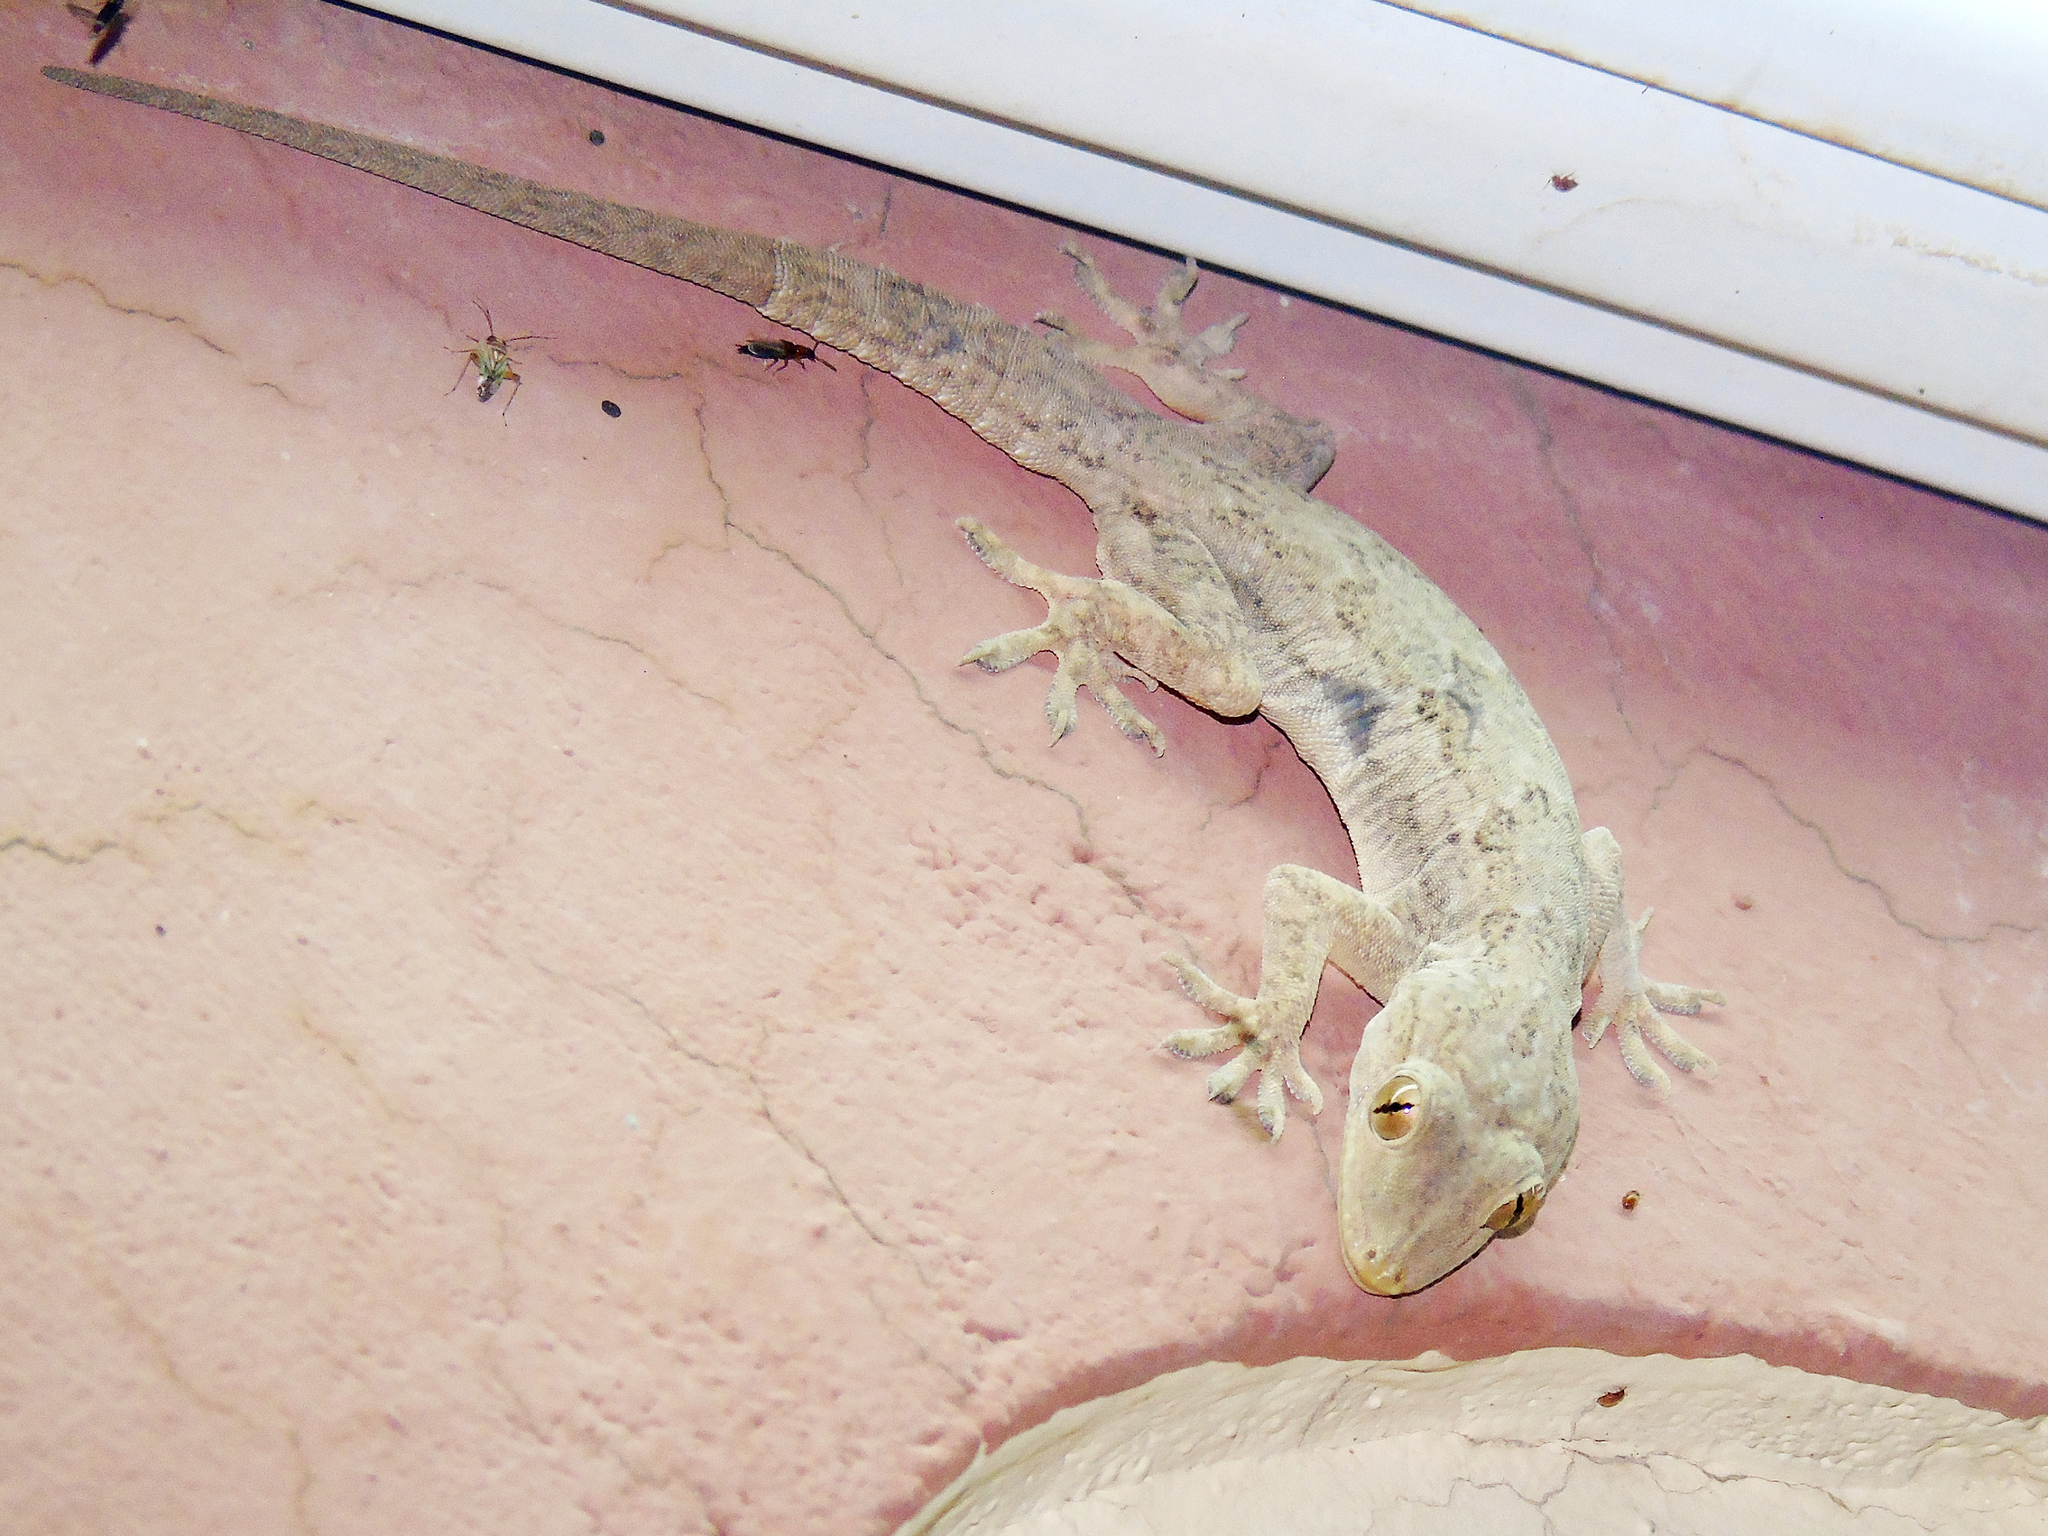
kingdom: Animalia
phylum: Chordata
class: Squamata
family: Gekkonidae
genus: Hemidactylus
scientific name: Hemidactylus flaviviridis
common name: Northern house gecko
